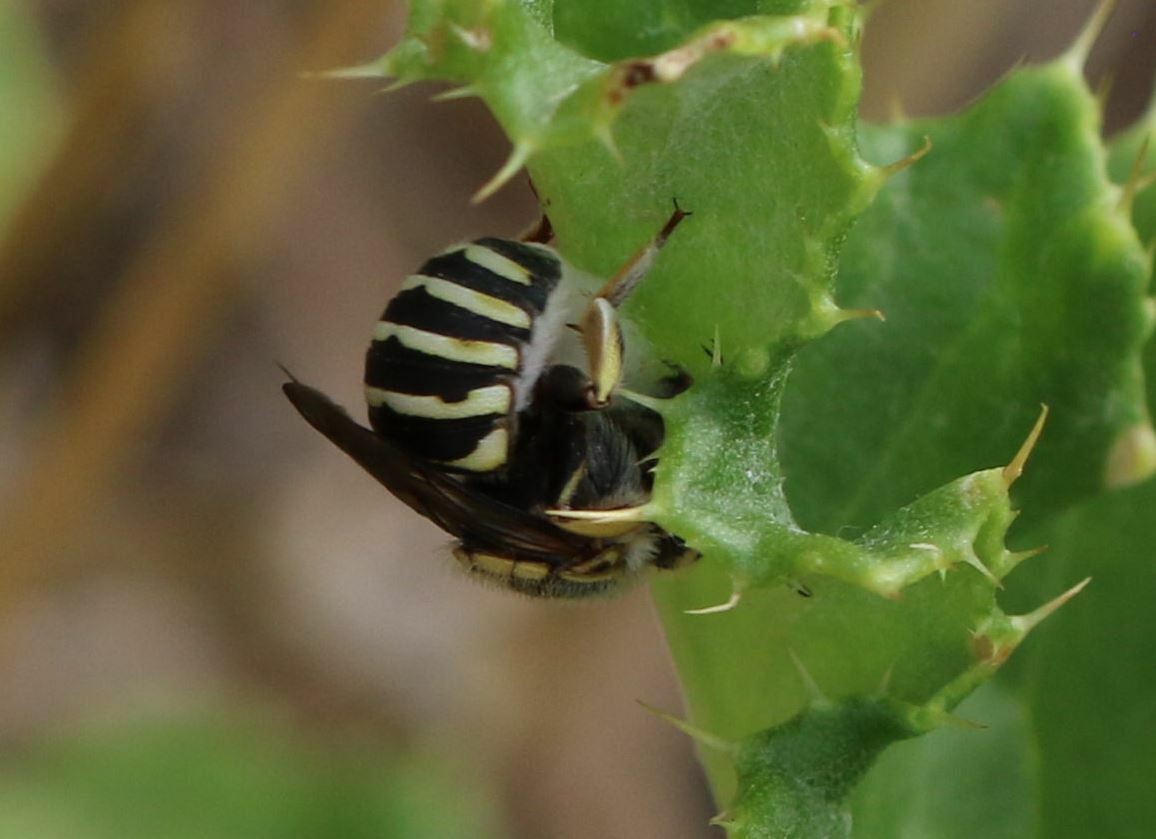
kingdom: Animalia
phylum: Arthropoda
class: Insecta
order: Hymenoptera
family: Megachilidae
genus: Anthidium
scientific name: Anthidium diadema
